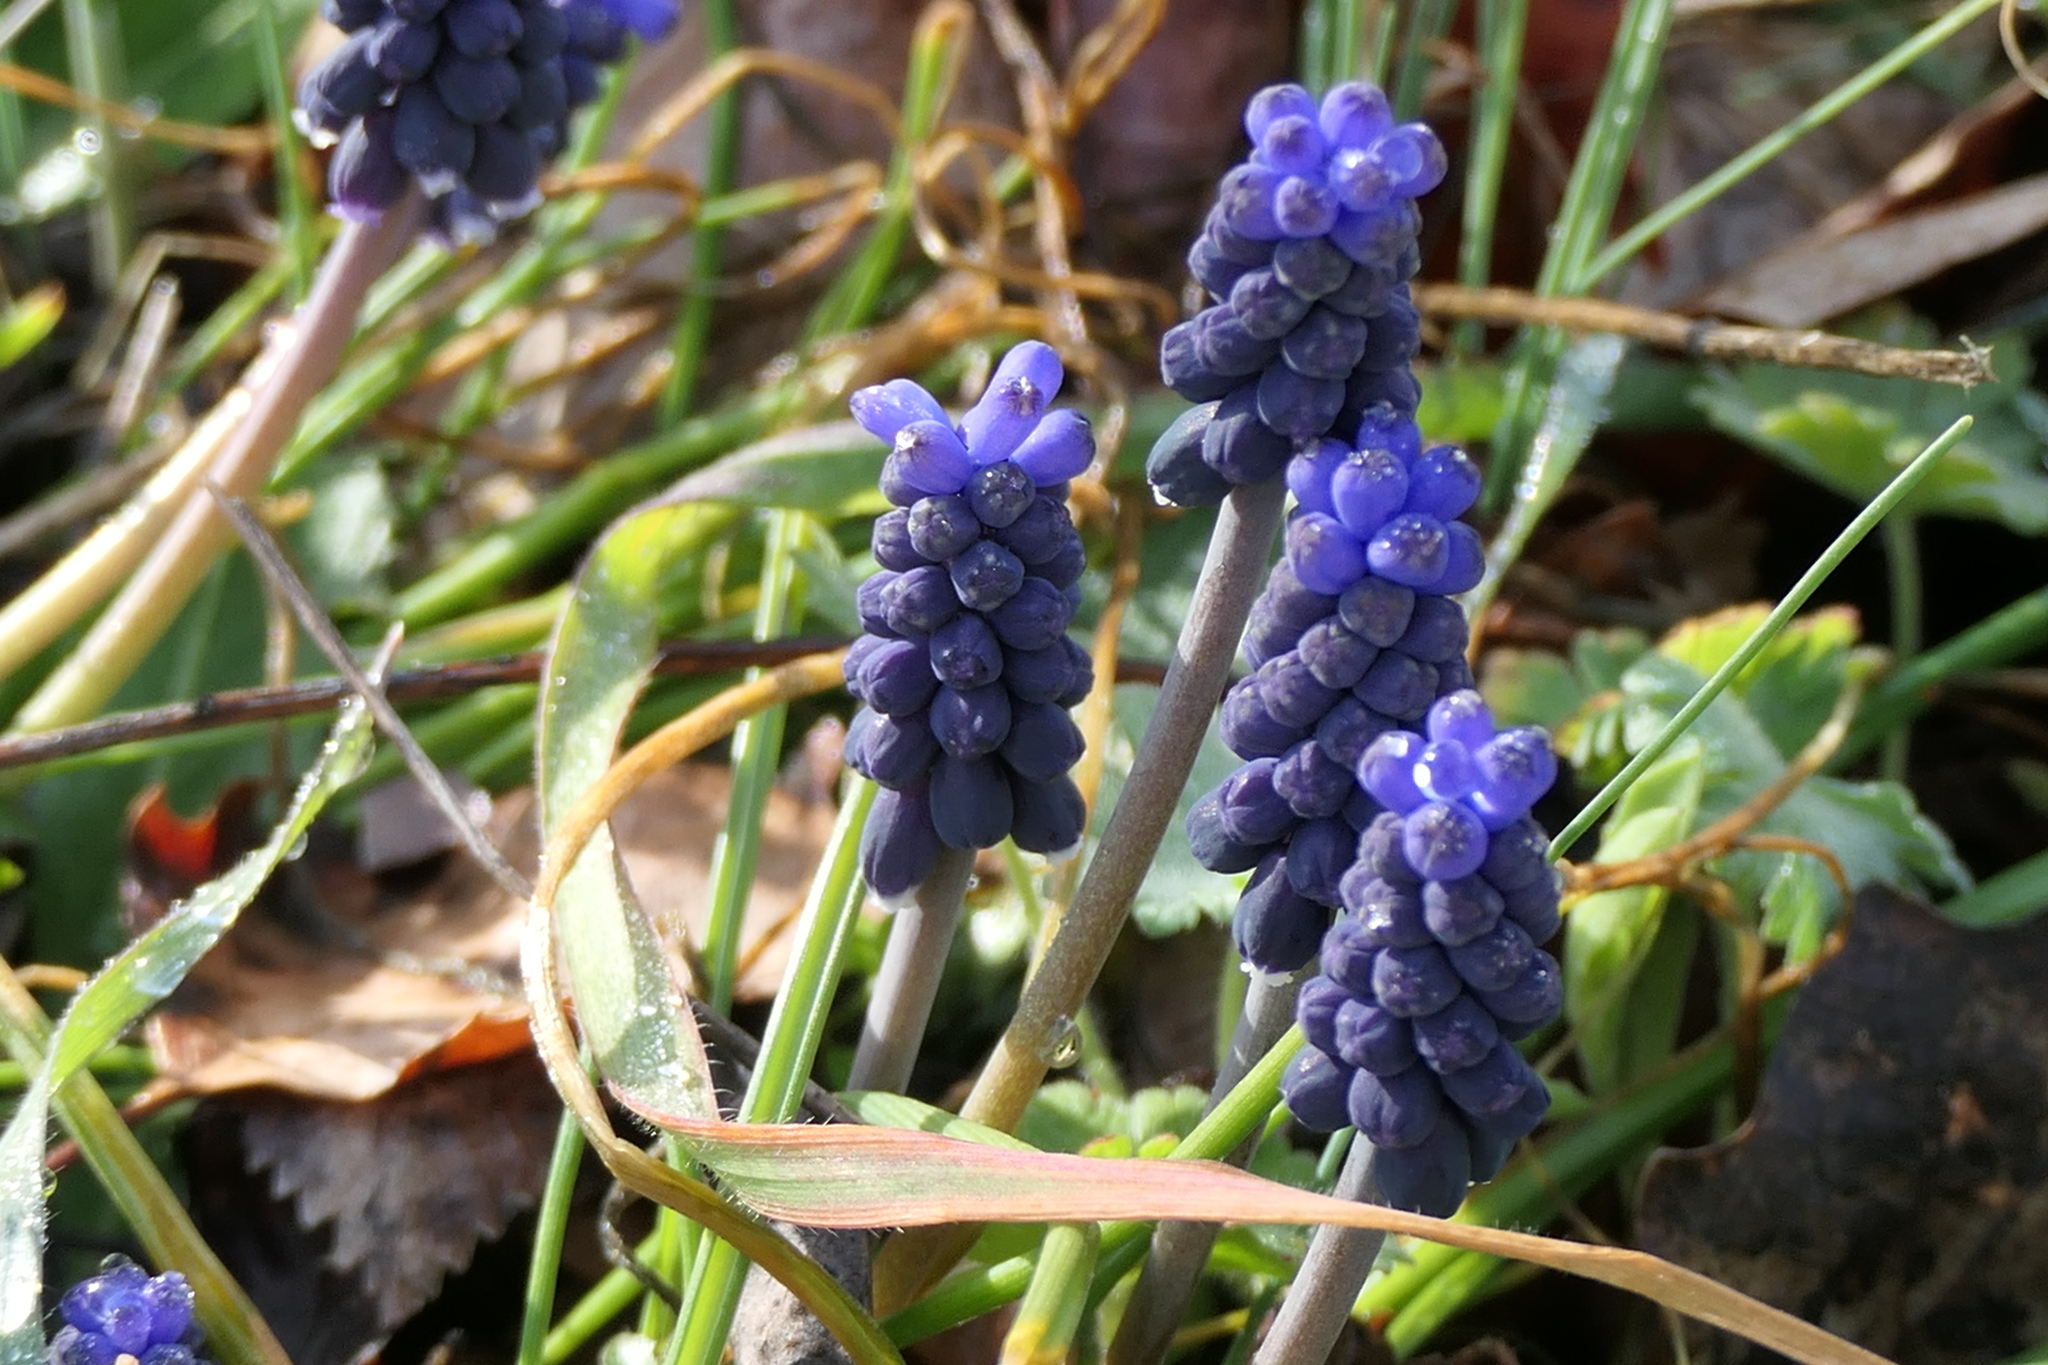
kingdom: Plantae
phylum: Tracheophyta
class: Liliopsida
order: Asparagales
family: Asparagaceae
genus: Muscari
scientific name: Muscari neglectum
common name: Grape-hyacinth
